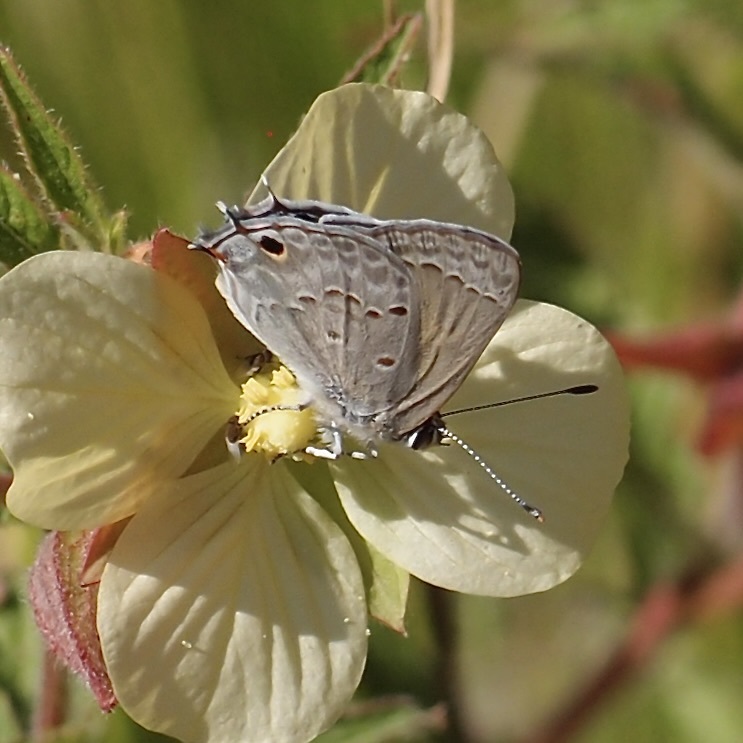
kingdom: Animalia
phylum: Arthropoda
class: Insecta
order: Lepidoptera
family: Lycaenidae
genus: Callicista
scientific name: Callicista columella
